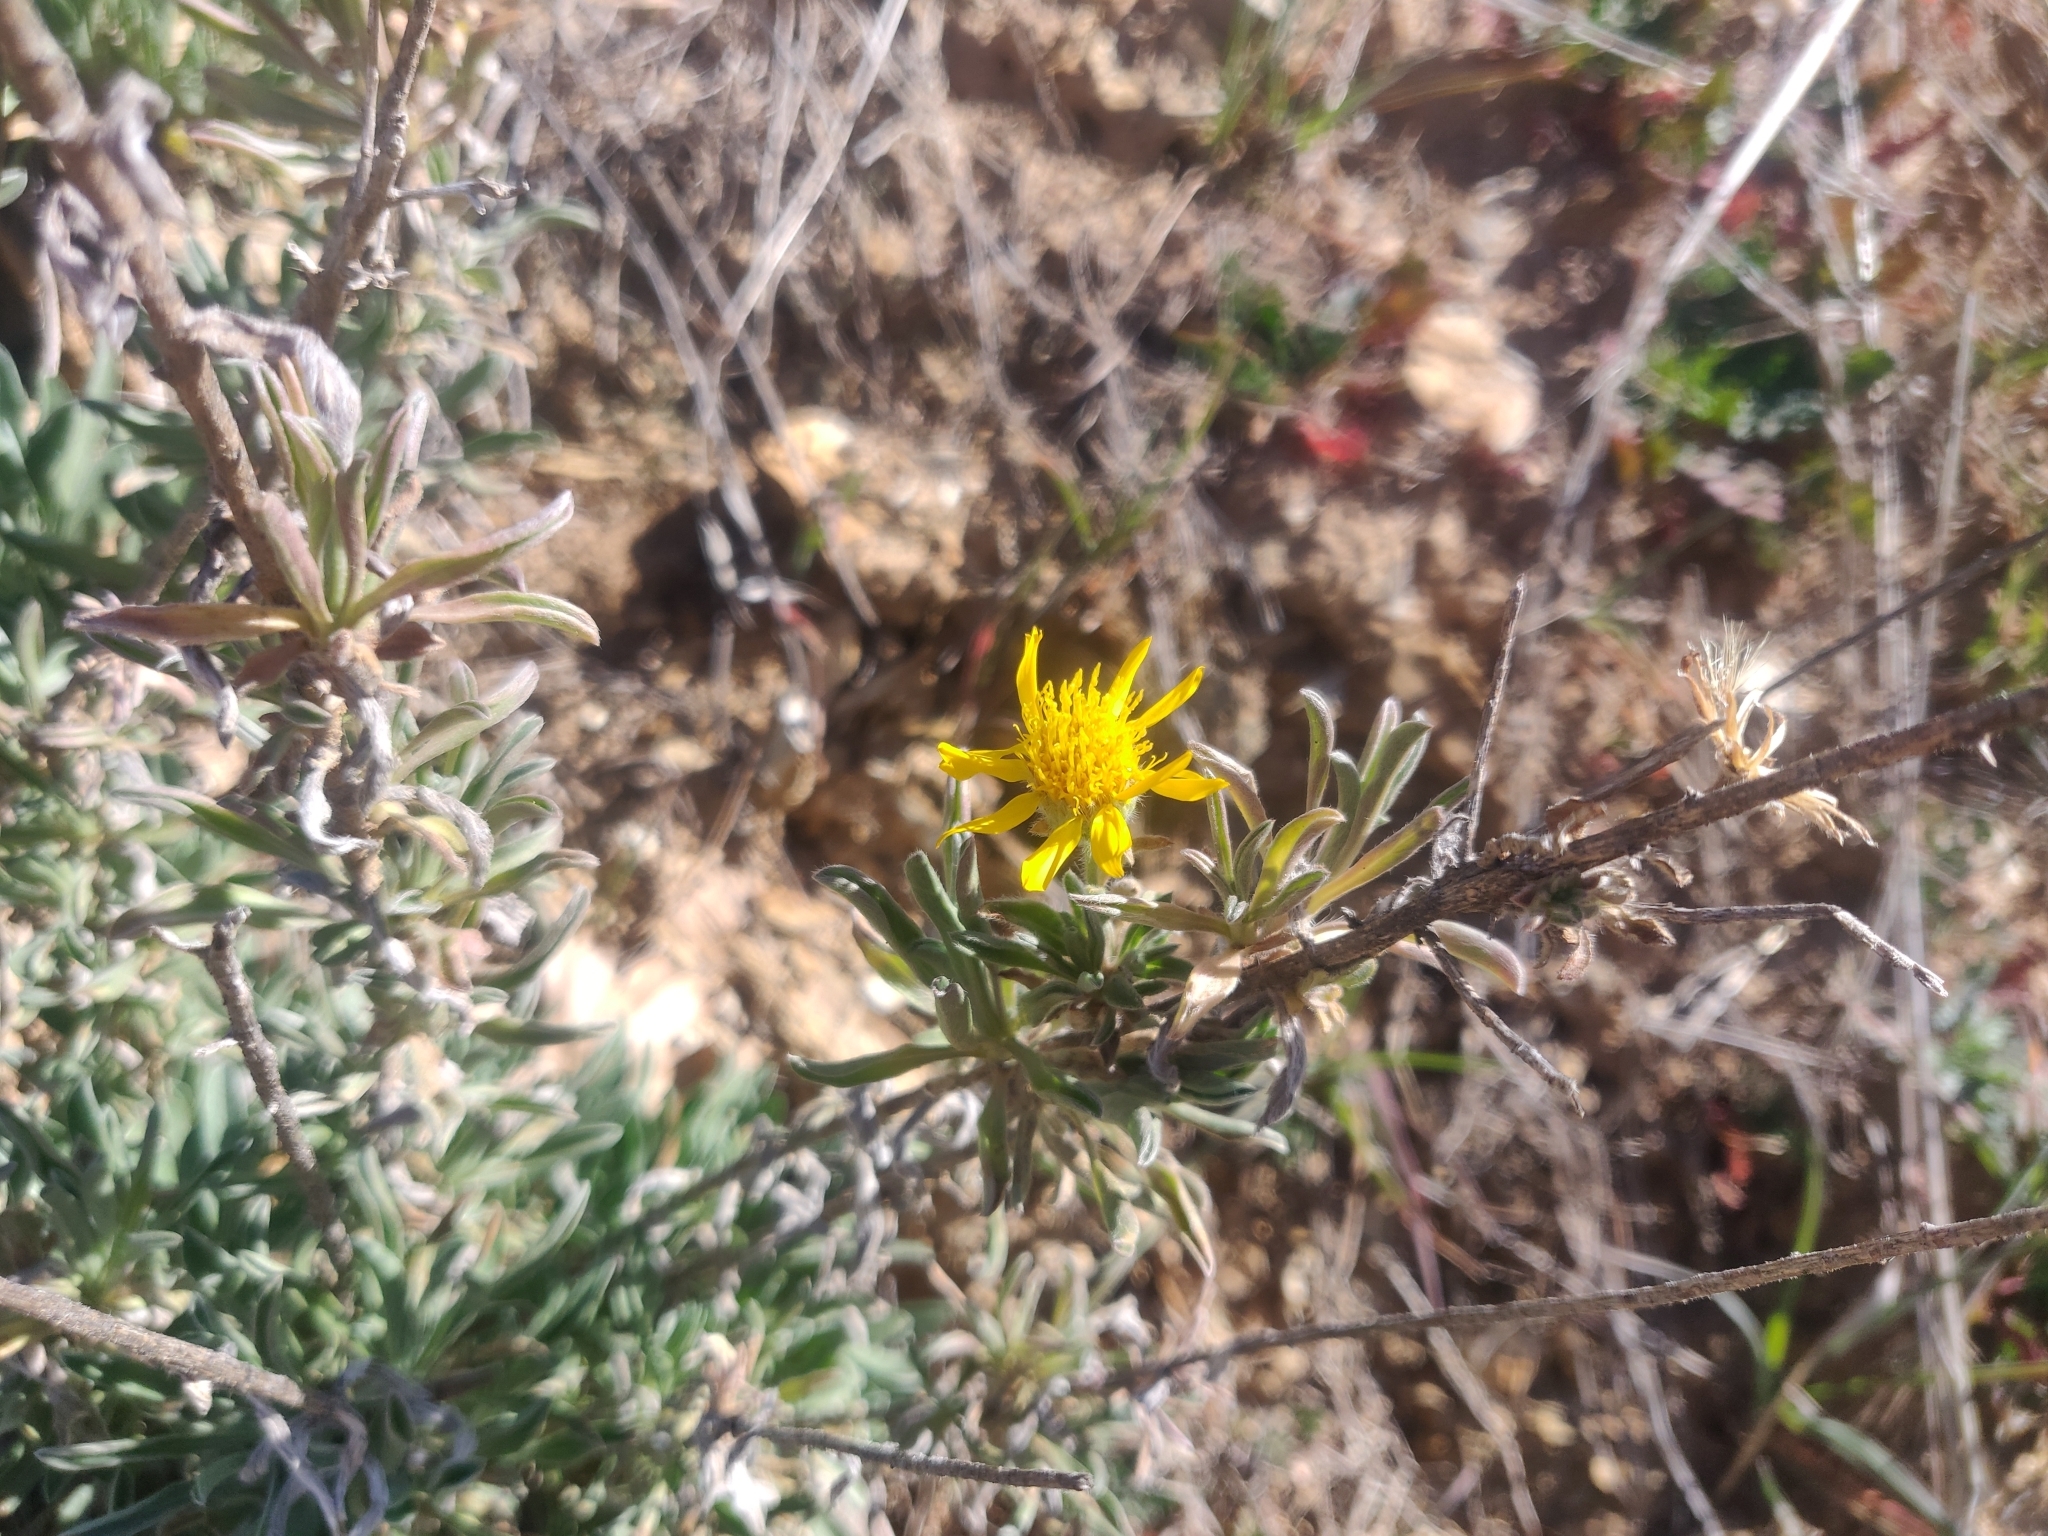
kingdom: Plantae
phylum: Tracheophyta
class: Magnoliopsida
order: Asterales
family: Asteraceae
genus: Heterotheca
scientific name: Heterotheca villosissima
